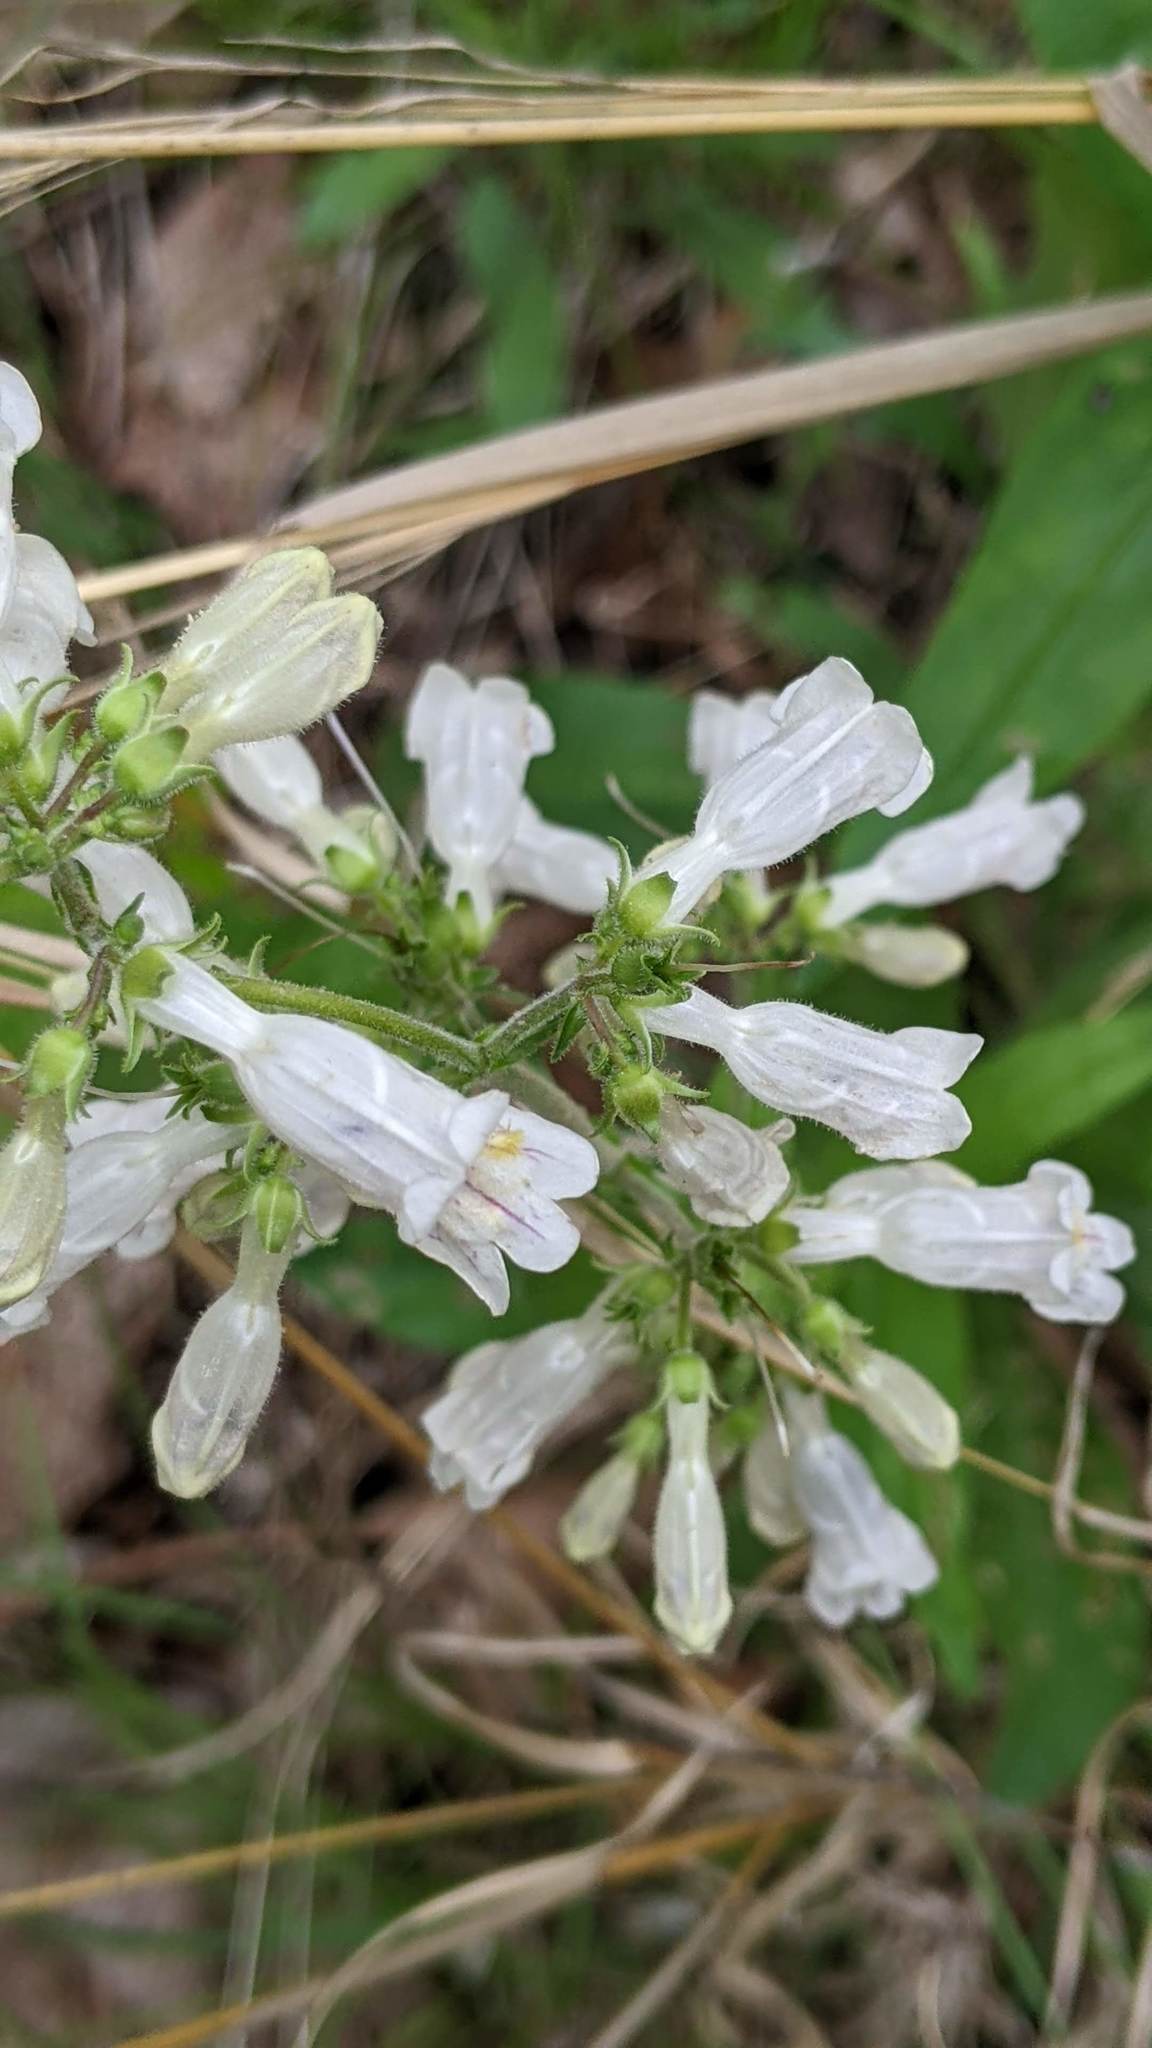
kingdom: Plantae
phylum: Tracheophyta
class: Magnoliopsida
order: Lamiales
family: Plantaginaceae
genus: Penstemon
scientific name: Penstemon pallidus
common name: Pale beardtongue
